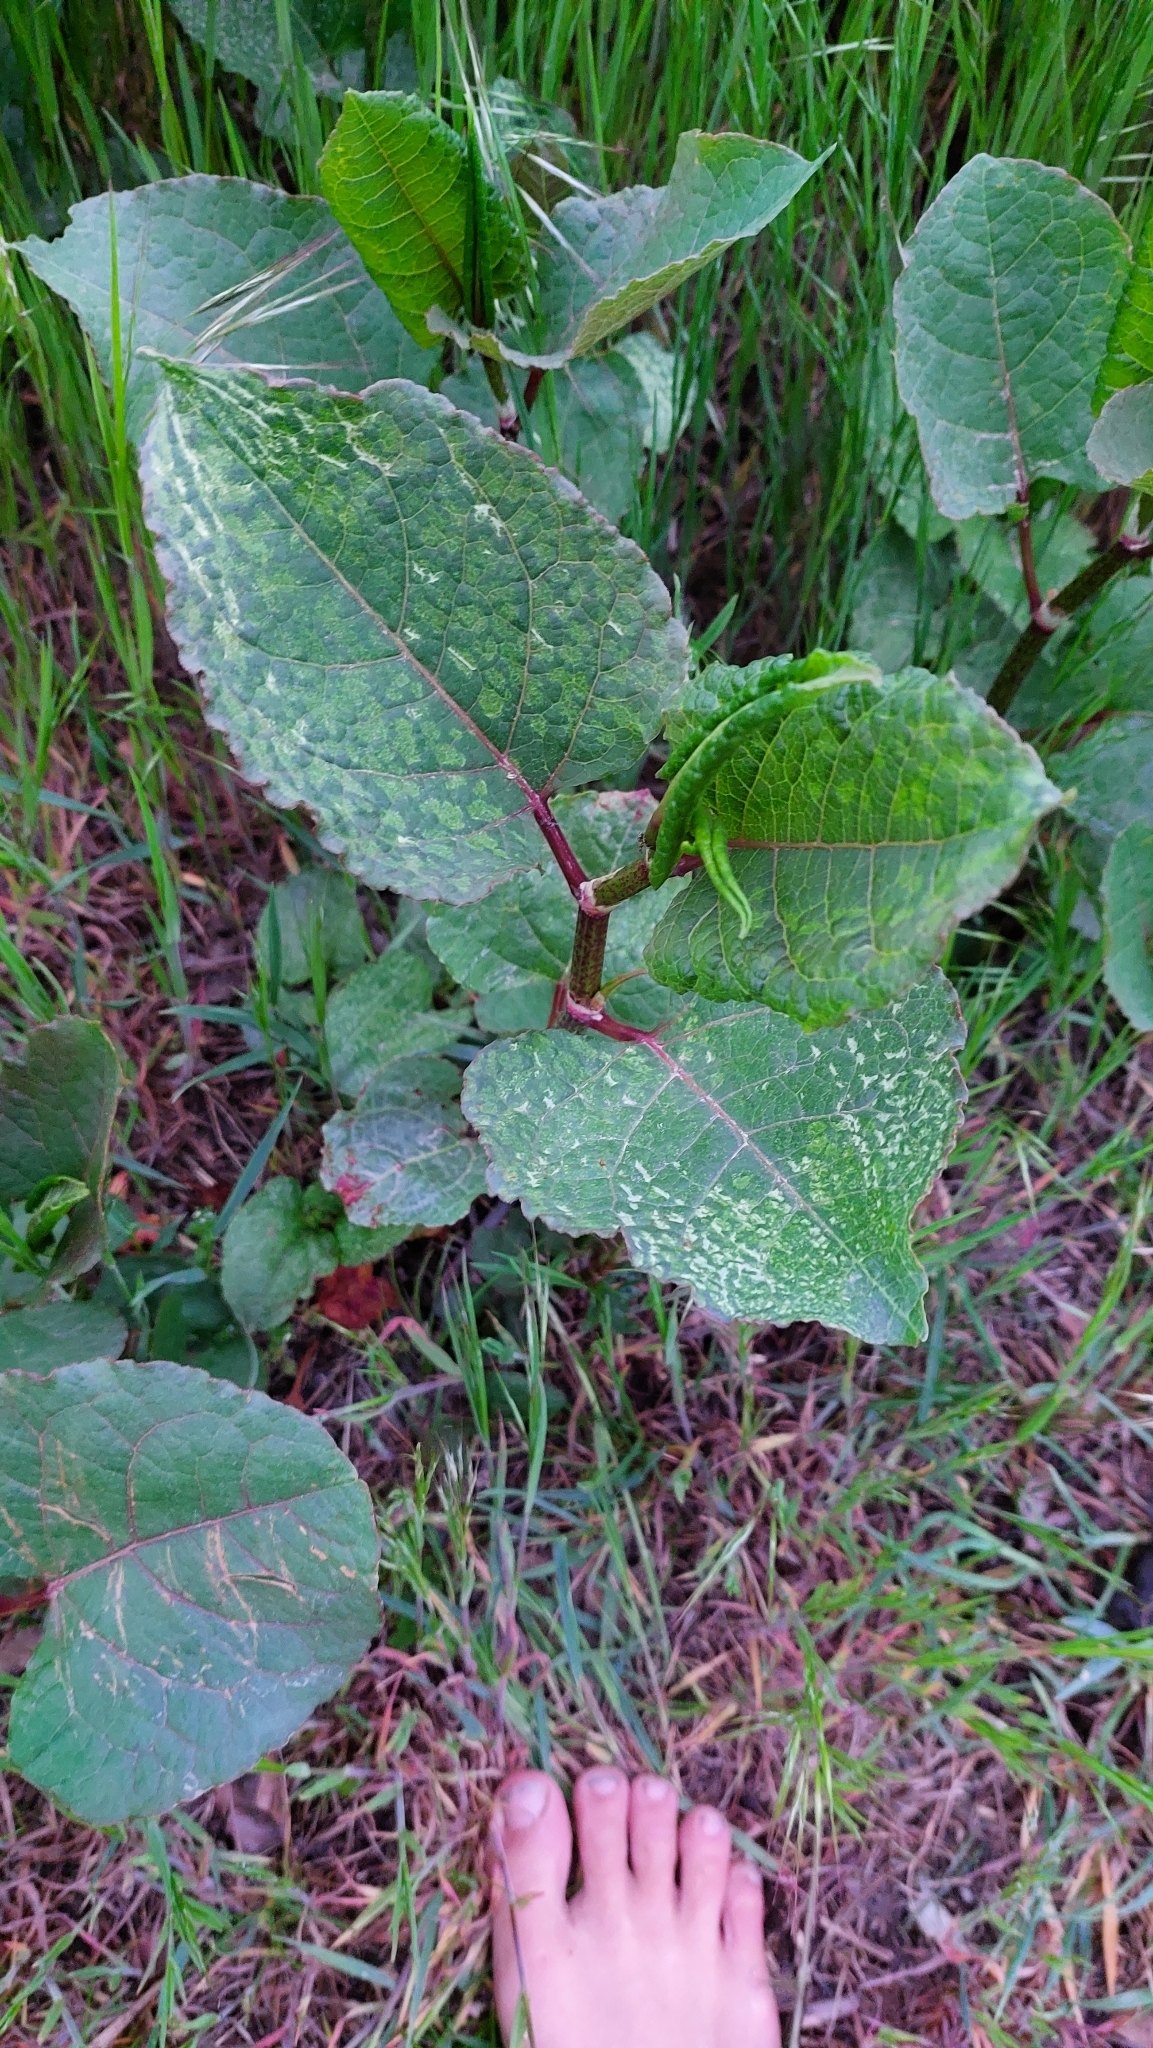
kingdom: Plantae
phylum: Tracheophyta
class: Magnoliopsida
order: Caryophyllales
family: Polygonaceae
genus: Reynoutria
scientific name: Reynoutria bohemica
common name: Bohemian knotweed
